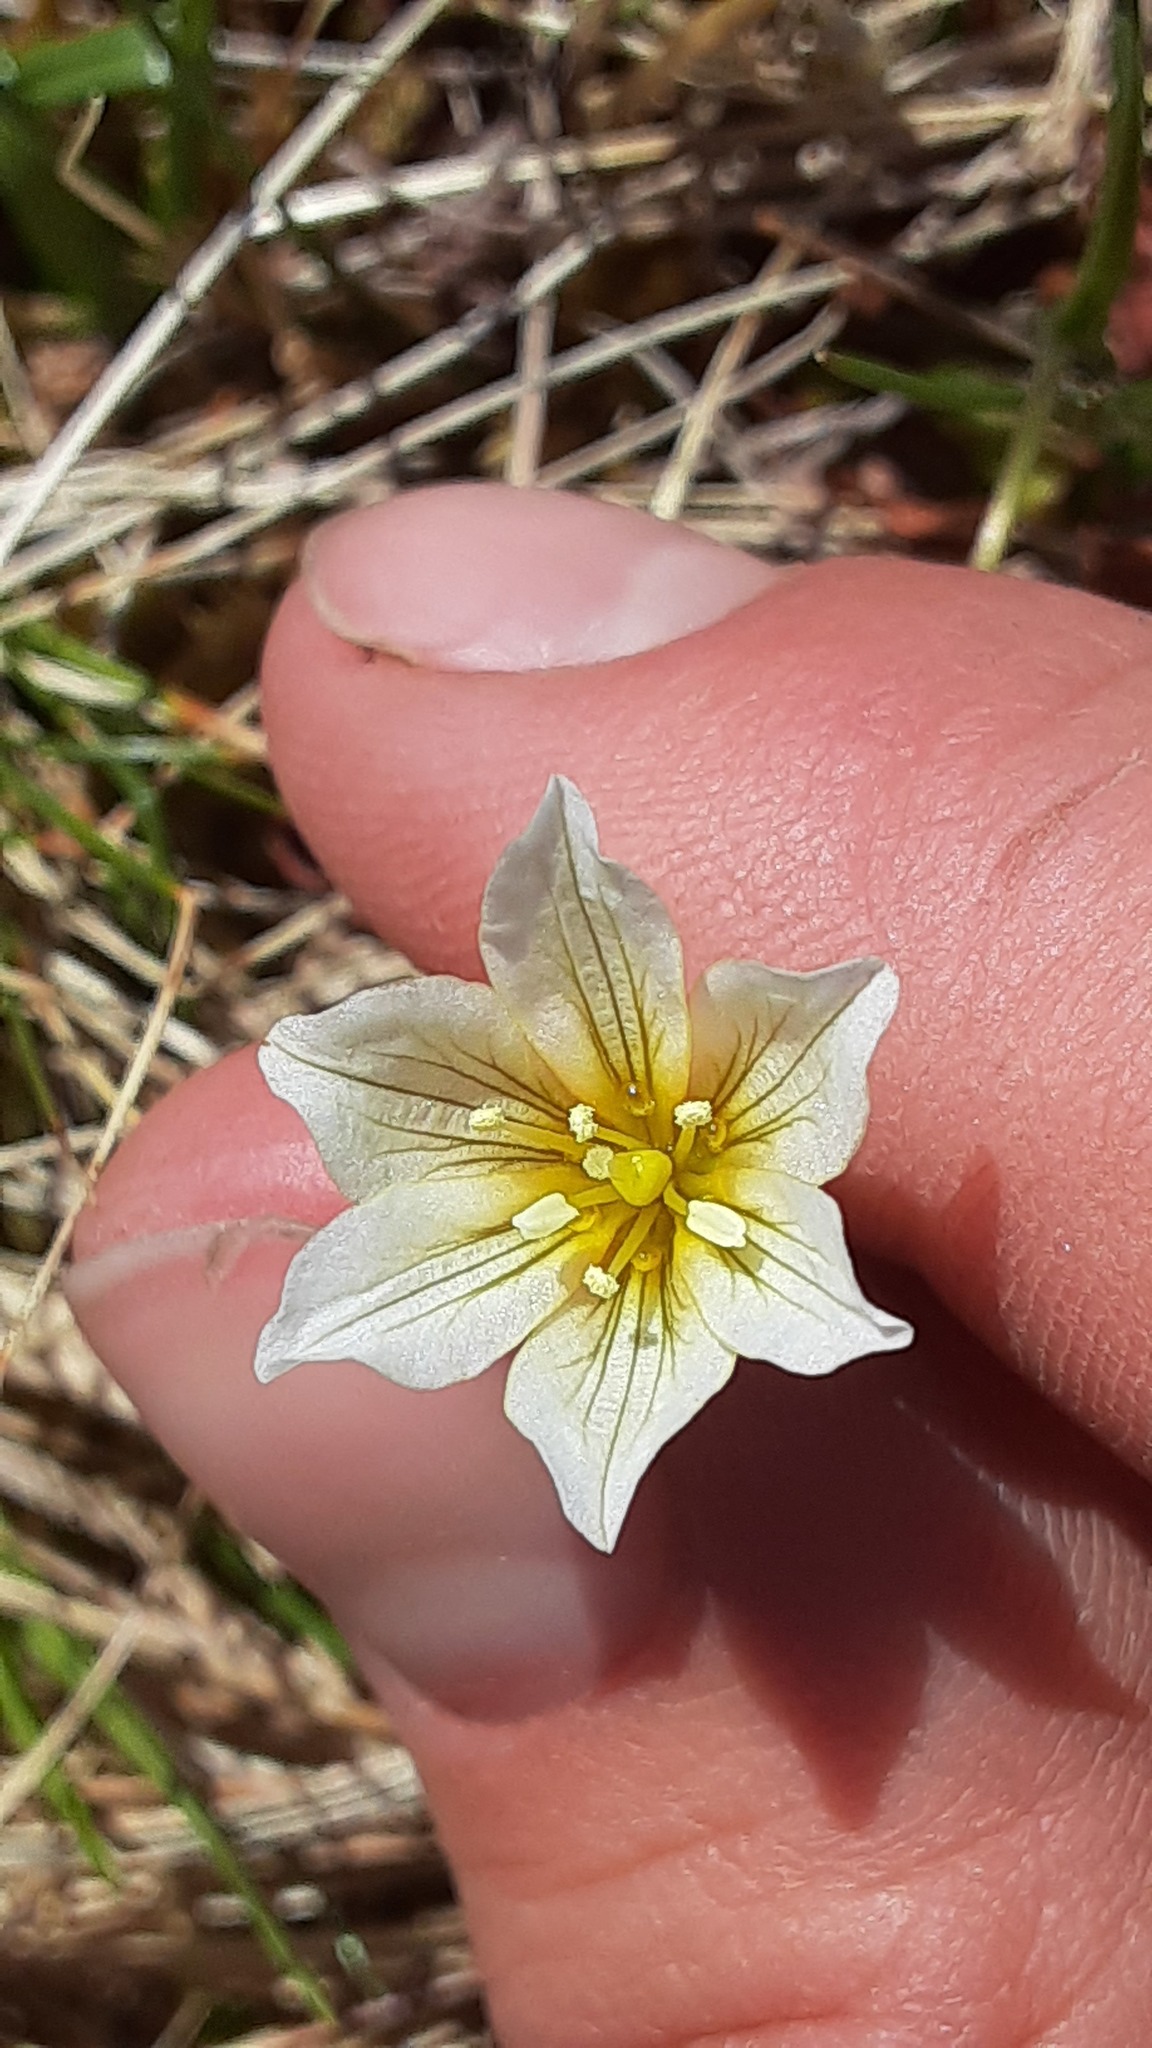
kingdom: Plantae
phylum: Tracheophyta
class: Liliopsida
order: Liliales
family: Liliaceae
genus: Gagea
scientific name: Gagea serotina
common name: Snowdon lily
